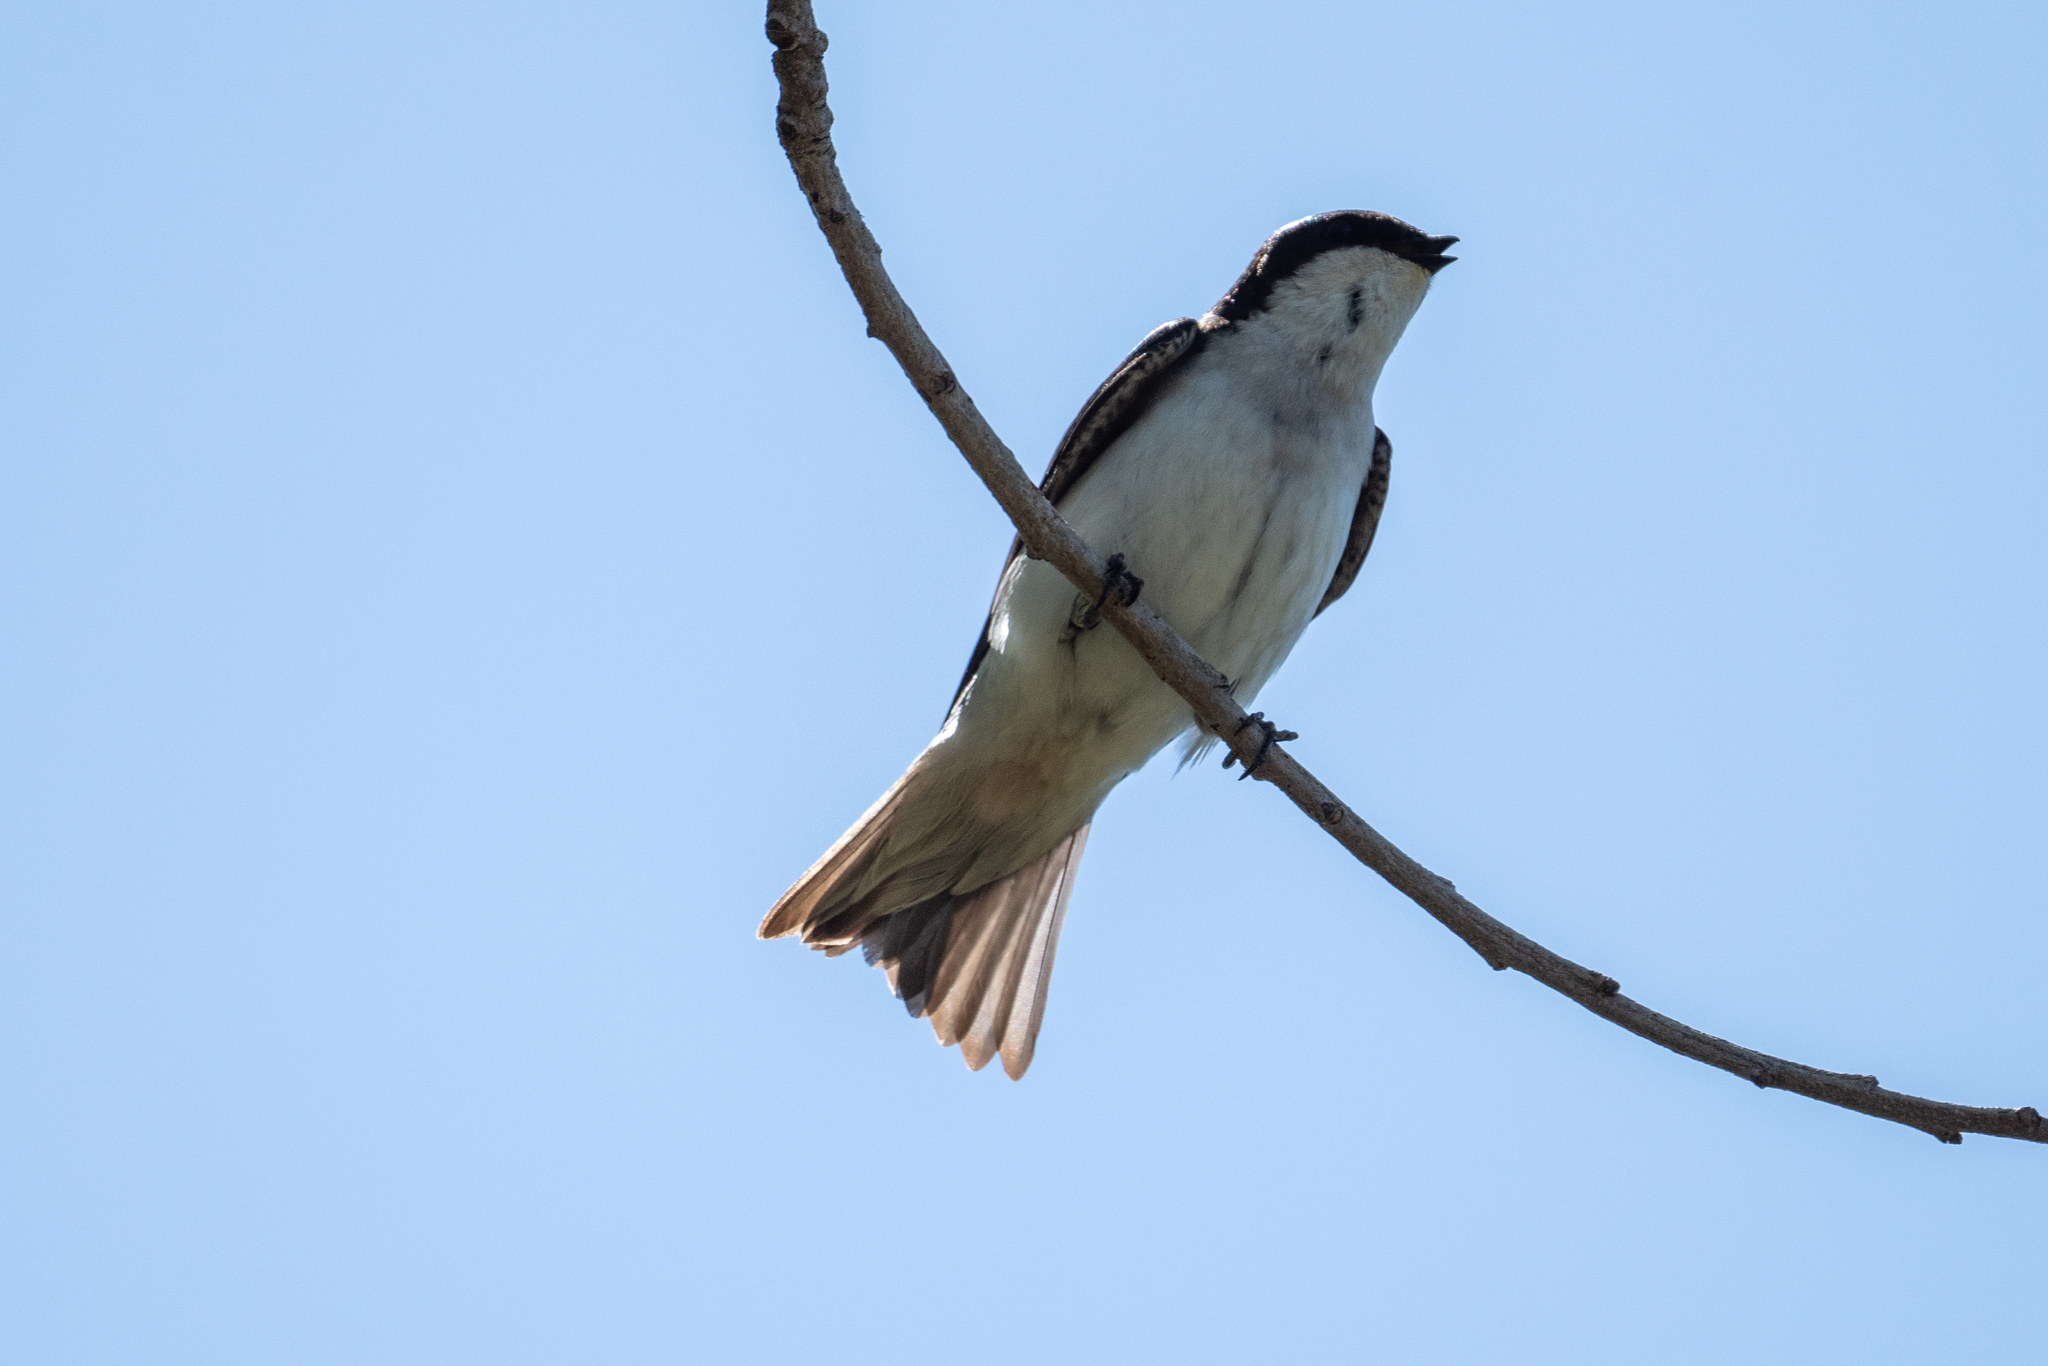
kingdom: Animalia
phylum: Chordata
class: Aves
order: Passeriformes
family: Hirundinidae
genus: Tachycineta
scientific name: Tachycineta bicolor
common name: Tree swallow
